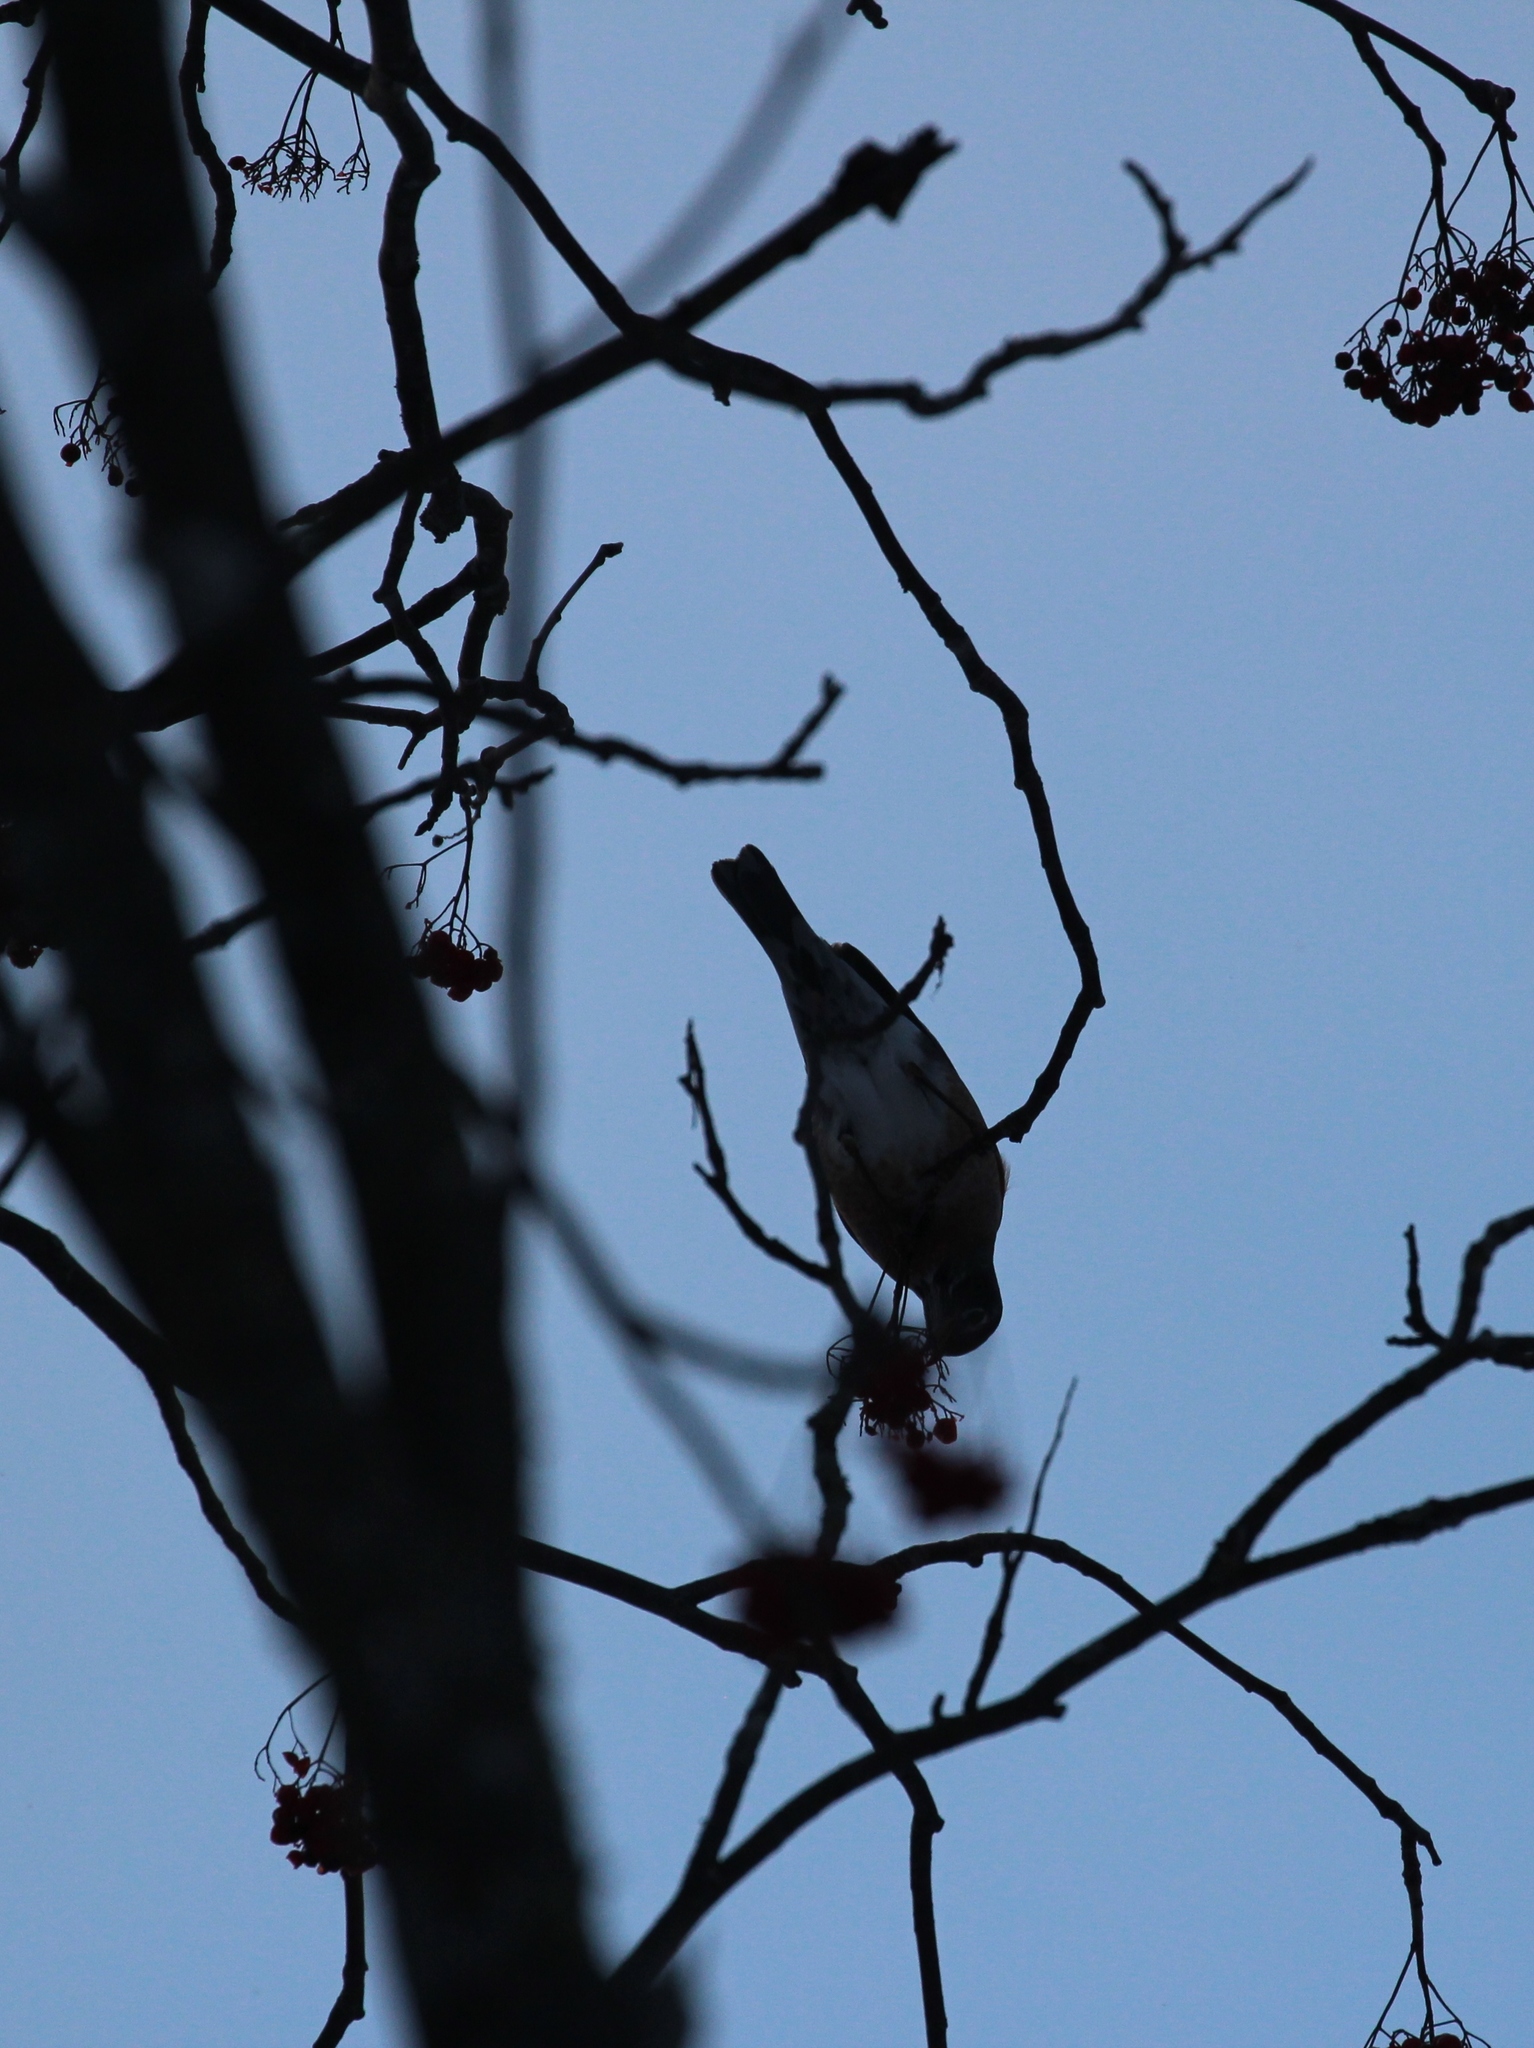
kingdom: Animalia
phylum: Chordata
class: Aves
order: Passeriformes
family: Turdidae
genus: Turdus
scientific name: Turdus migratorius
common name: American robin
